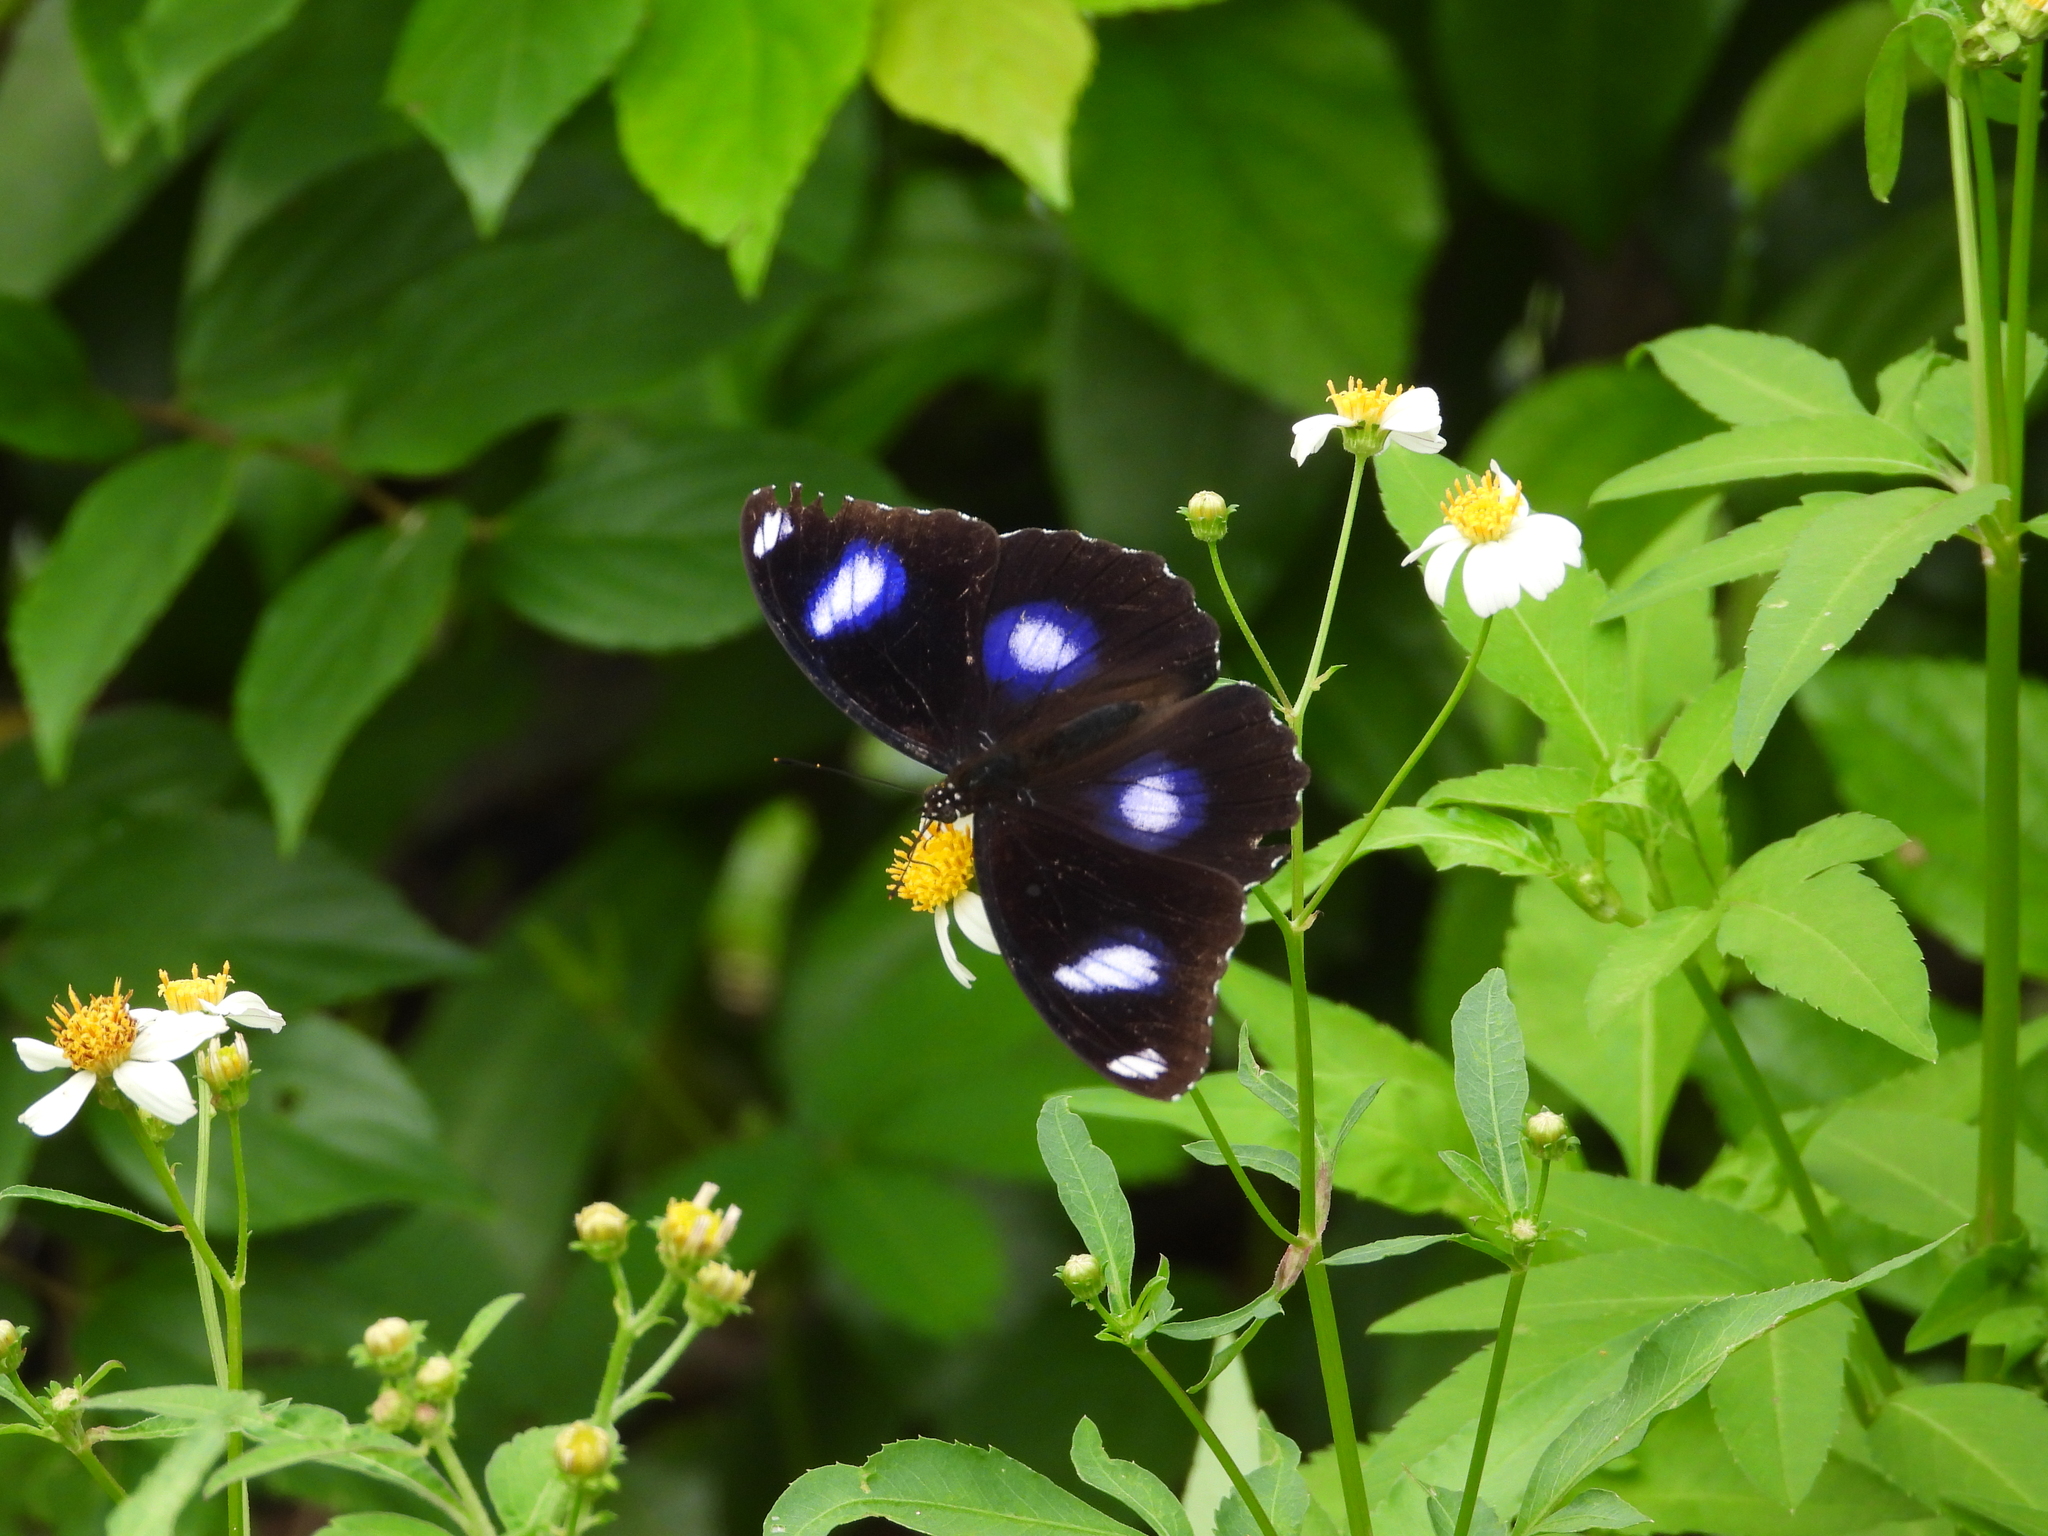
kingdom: Animalia
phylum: Arthropoda
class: Insecta
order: Lepidoptera
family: Nymphalidae
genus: Hypolimnas
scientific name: Hypolimnas bolina
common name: Great eggfly
